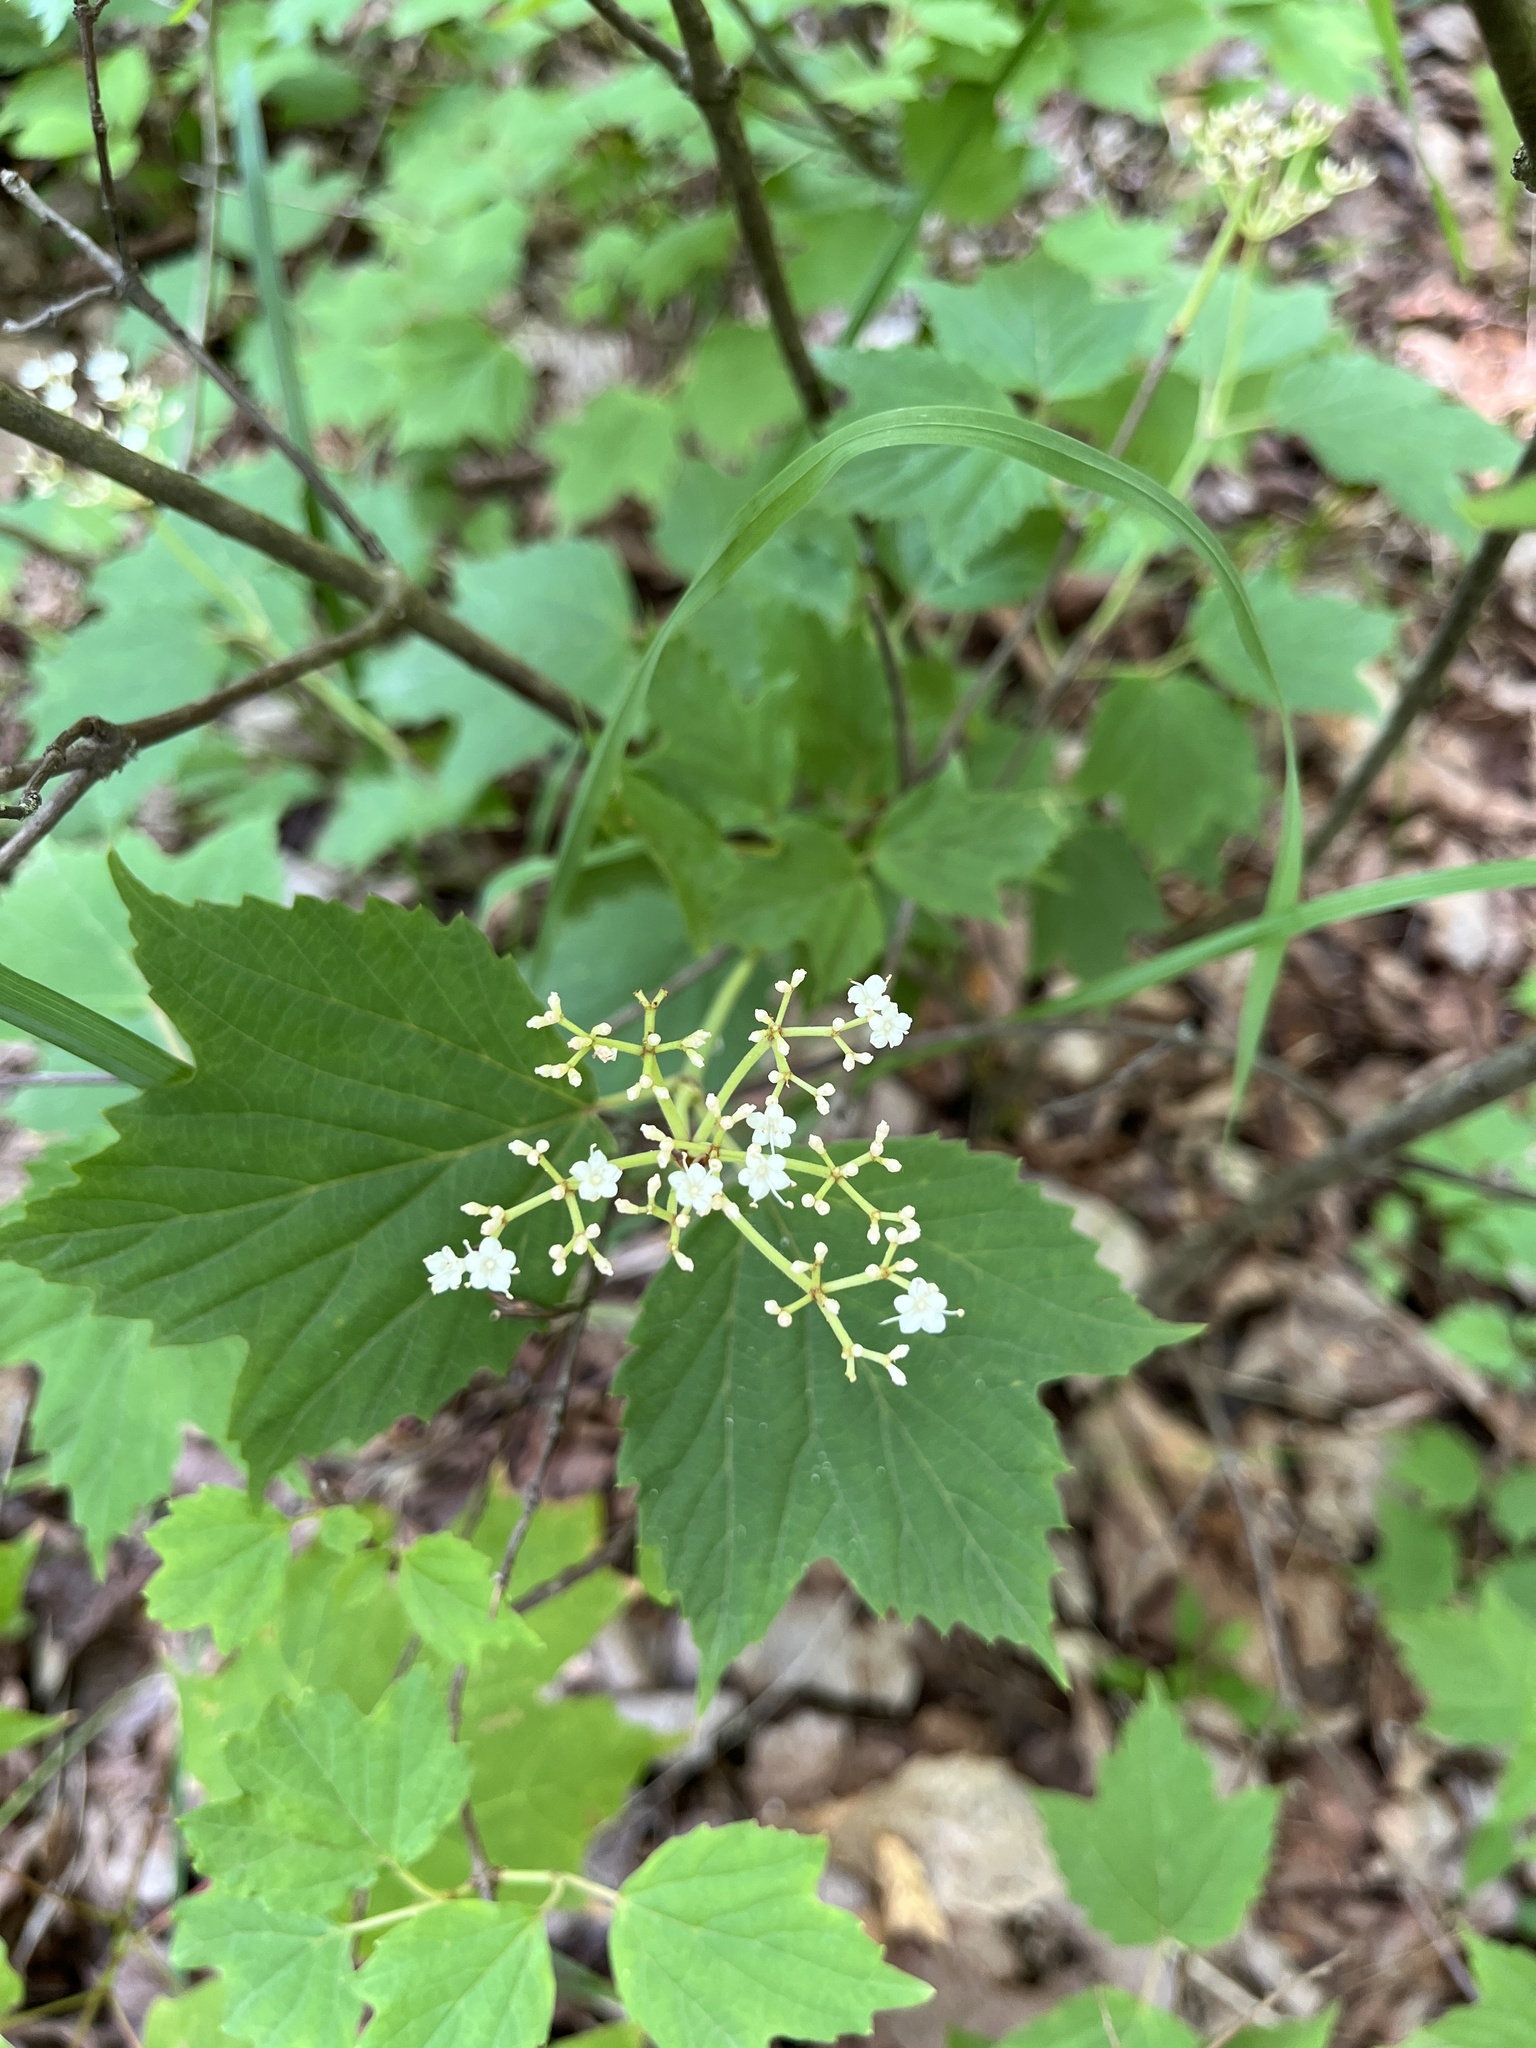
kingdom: Plantae
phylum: Tracheophyta
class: Magnoliopsida
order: Dipsacales
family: Viburnaceae
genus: Viburnum
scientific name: Viburnum acerifolium
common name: Dockmackie
